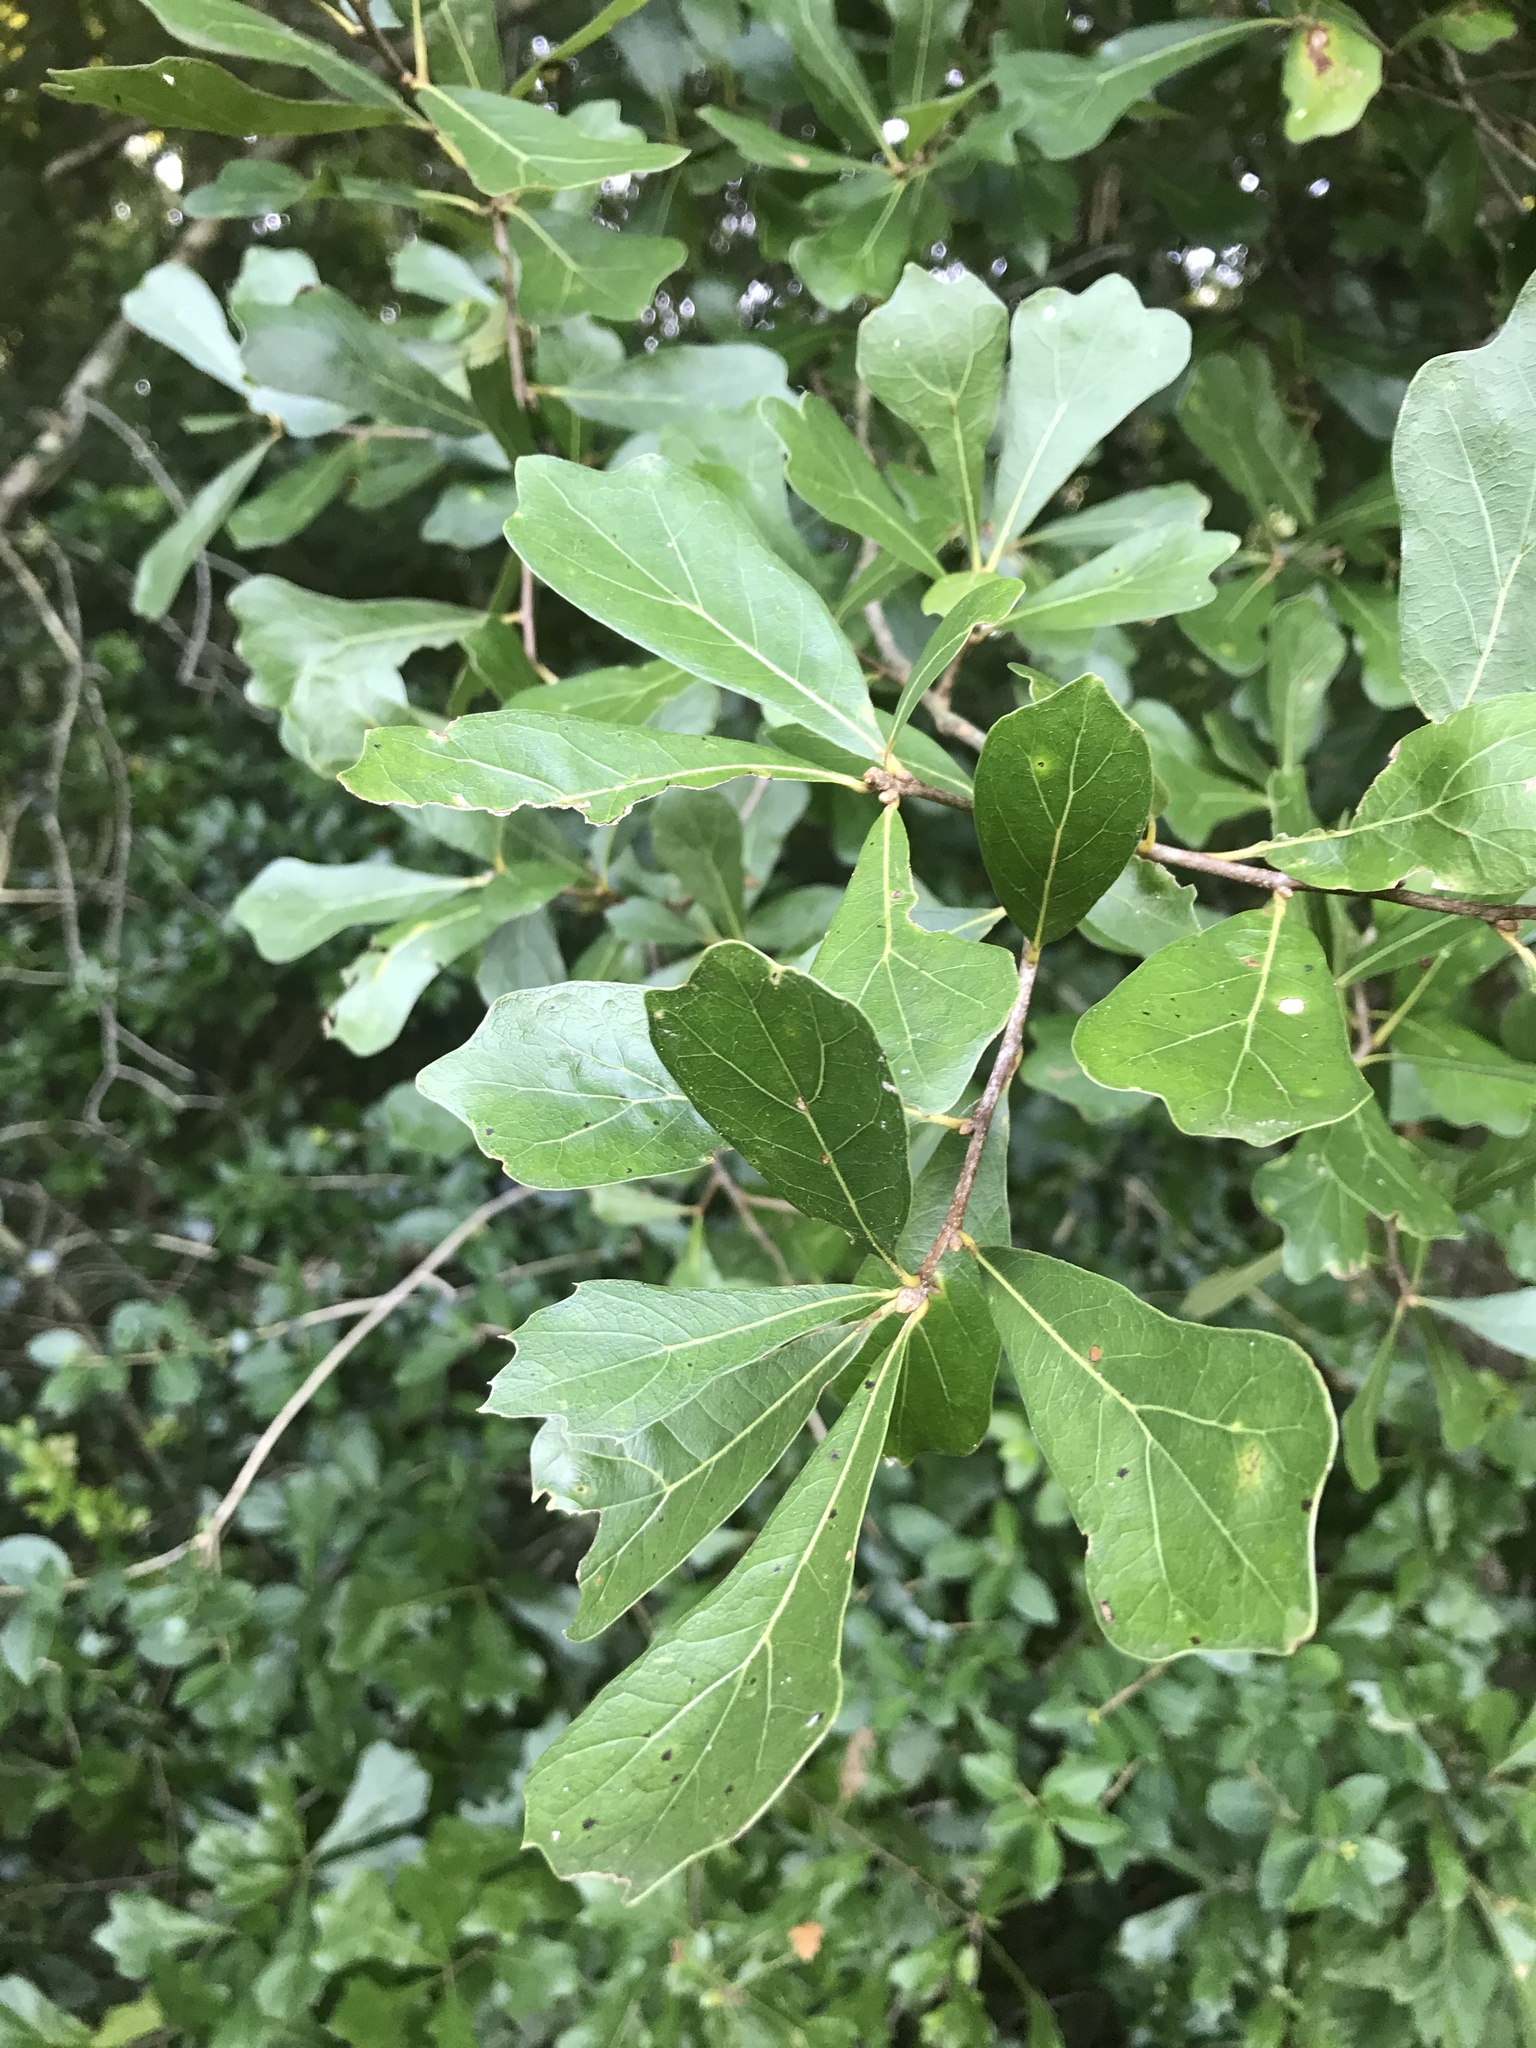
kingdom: Plantae
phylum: Tracheophyta
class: Magnoliopsida
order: Fagales
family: Fagaceae
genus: Quercus
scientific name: Quercus nigra
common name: Water oak
